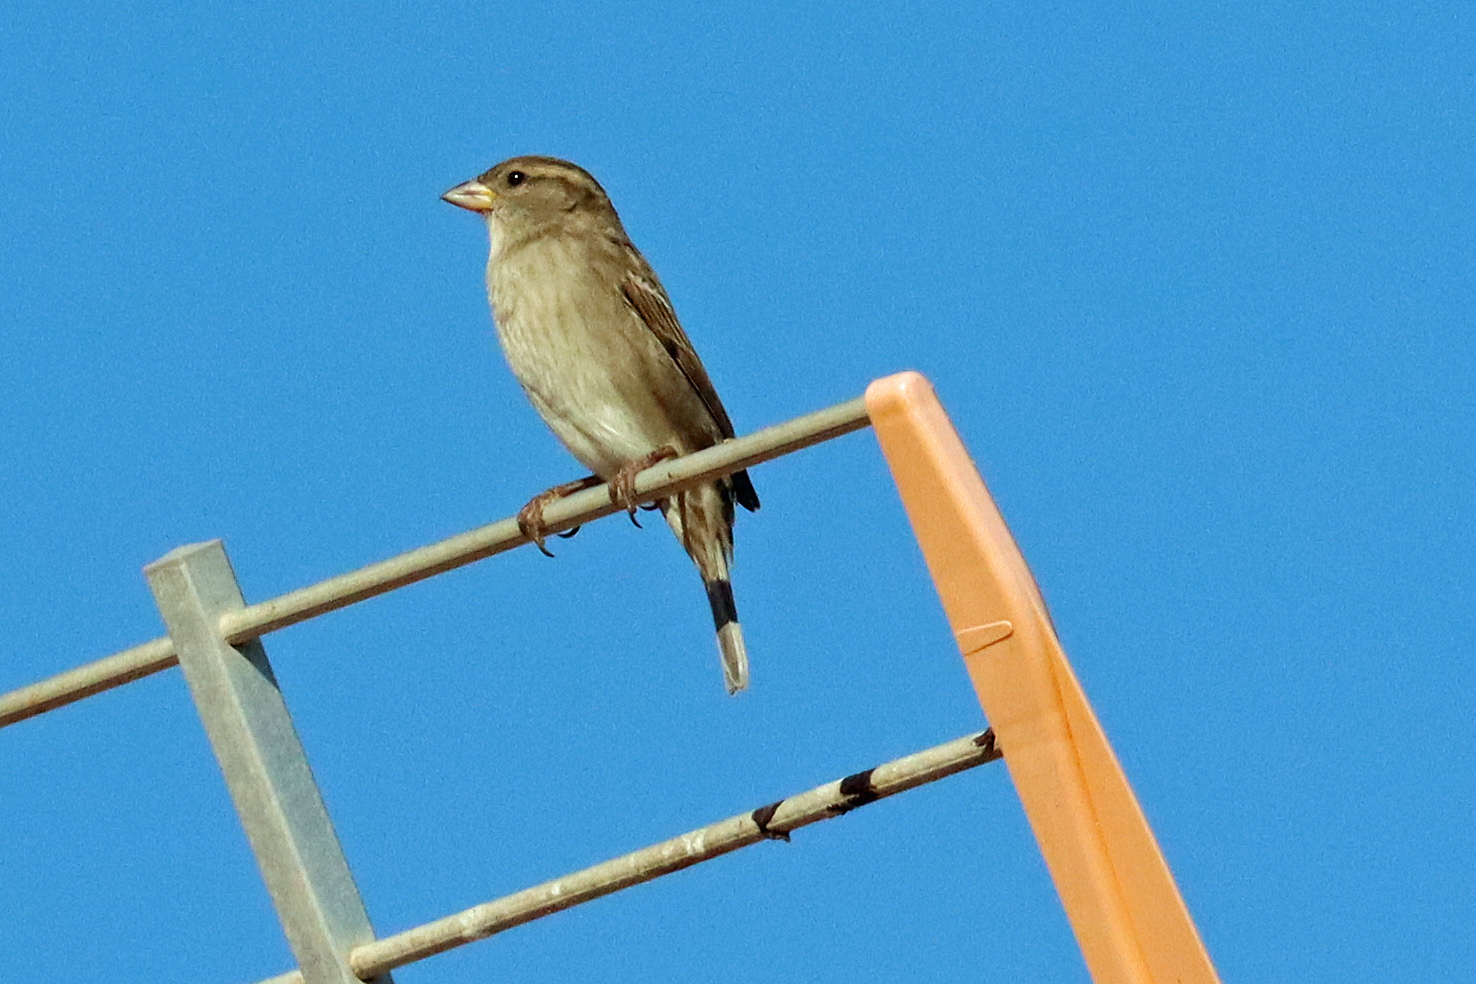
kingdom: Animalia
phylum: Chordata
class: Aves
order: Passeriformes
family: Passeridae
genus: Passer
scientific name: Passer domesticus
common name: House sparrow
